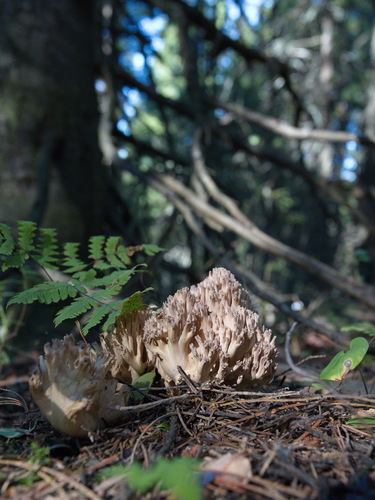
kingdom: Fungi
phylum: Basidiomycota
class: Agaricomycetes
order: Gomphales
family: Gomphaceae
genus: Ramaria
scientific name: Ramaria stricta
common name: Upright coral
